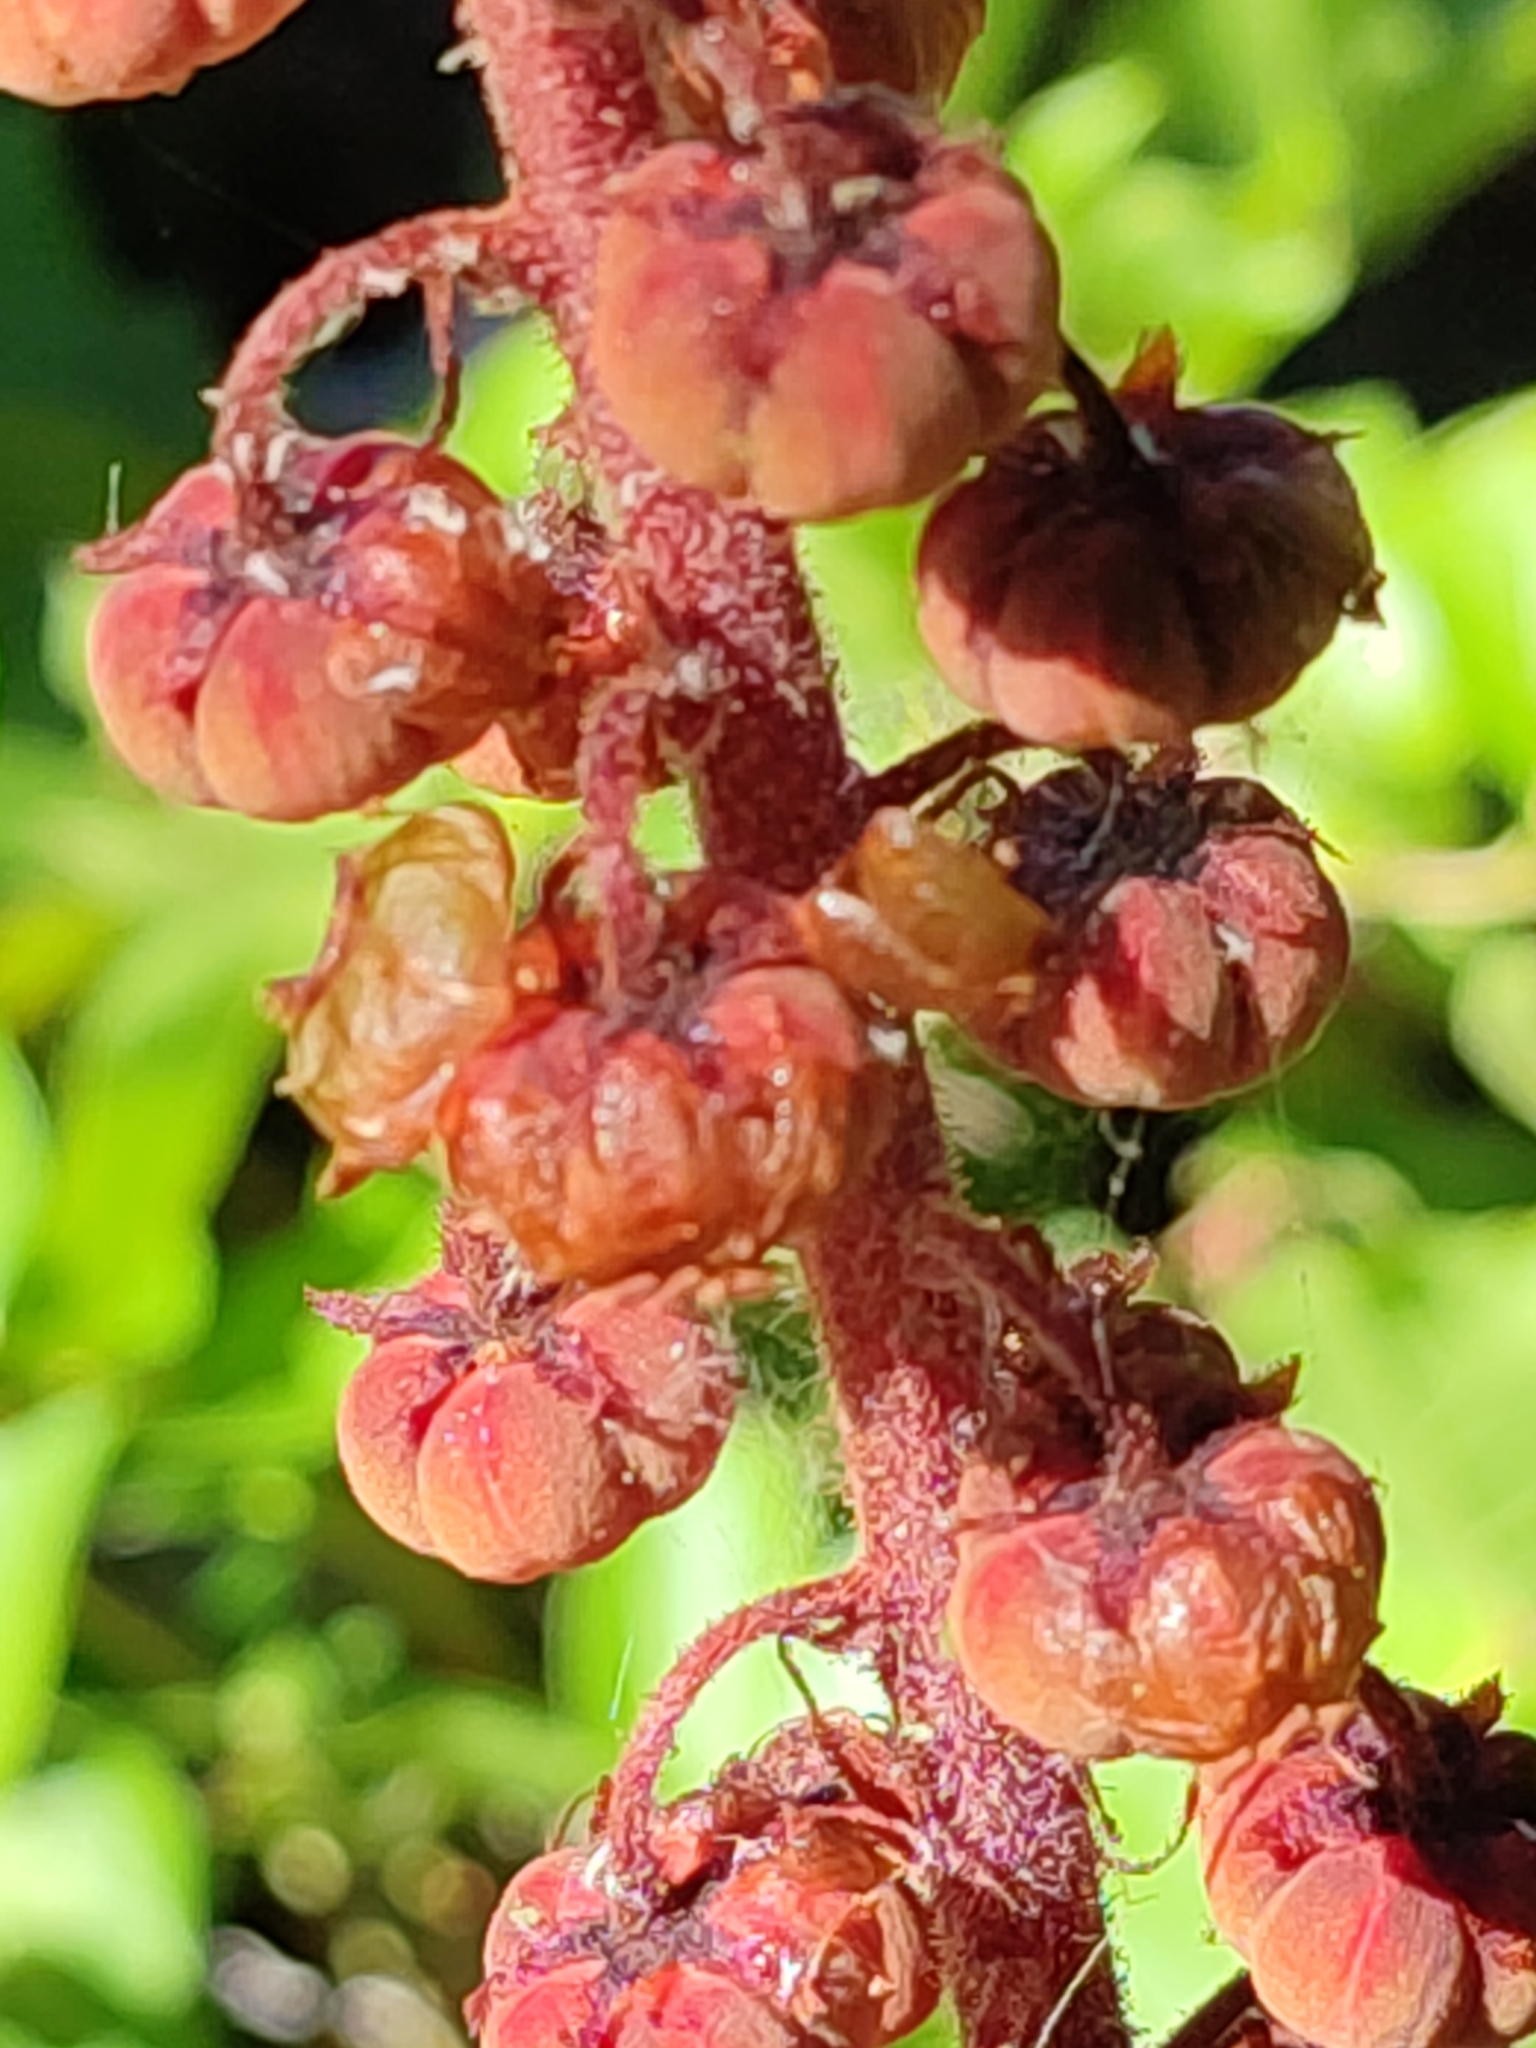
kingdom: Plantae
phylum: Tracheophyta
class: Magnoliopsida
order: Ericales
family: Ericaceae
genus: Pterospora
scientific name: Pterospora andromedea
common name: Giant bird's-nest
